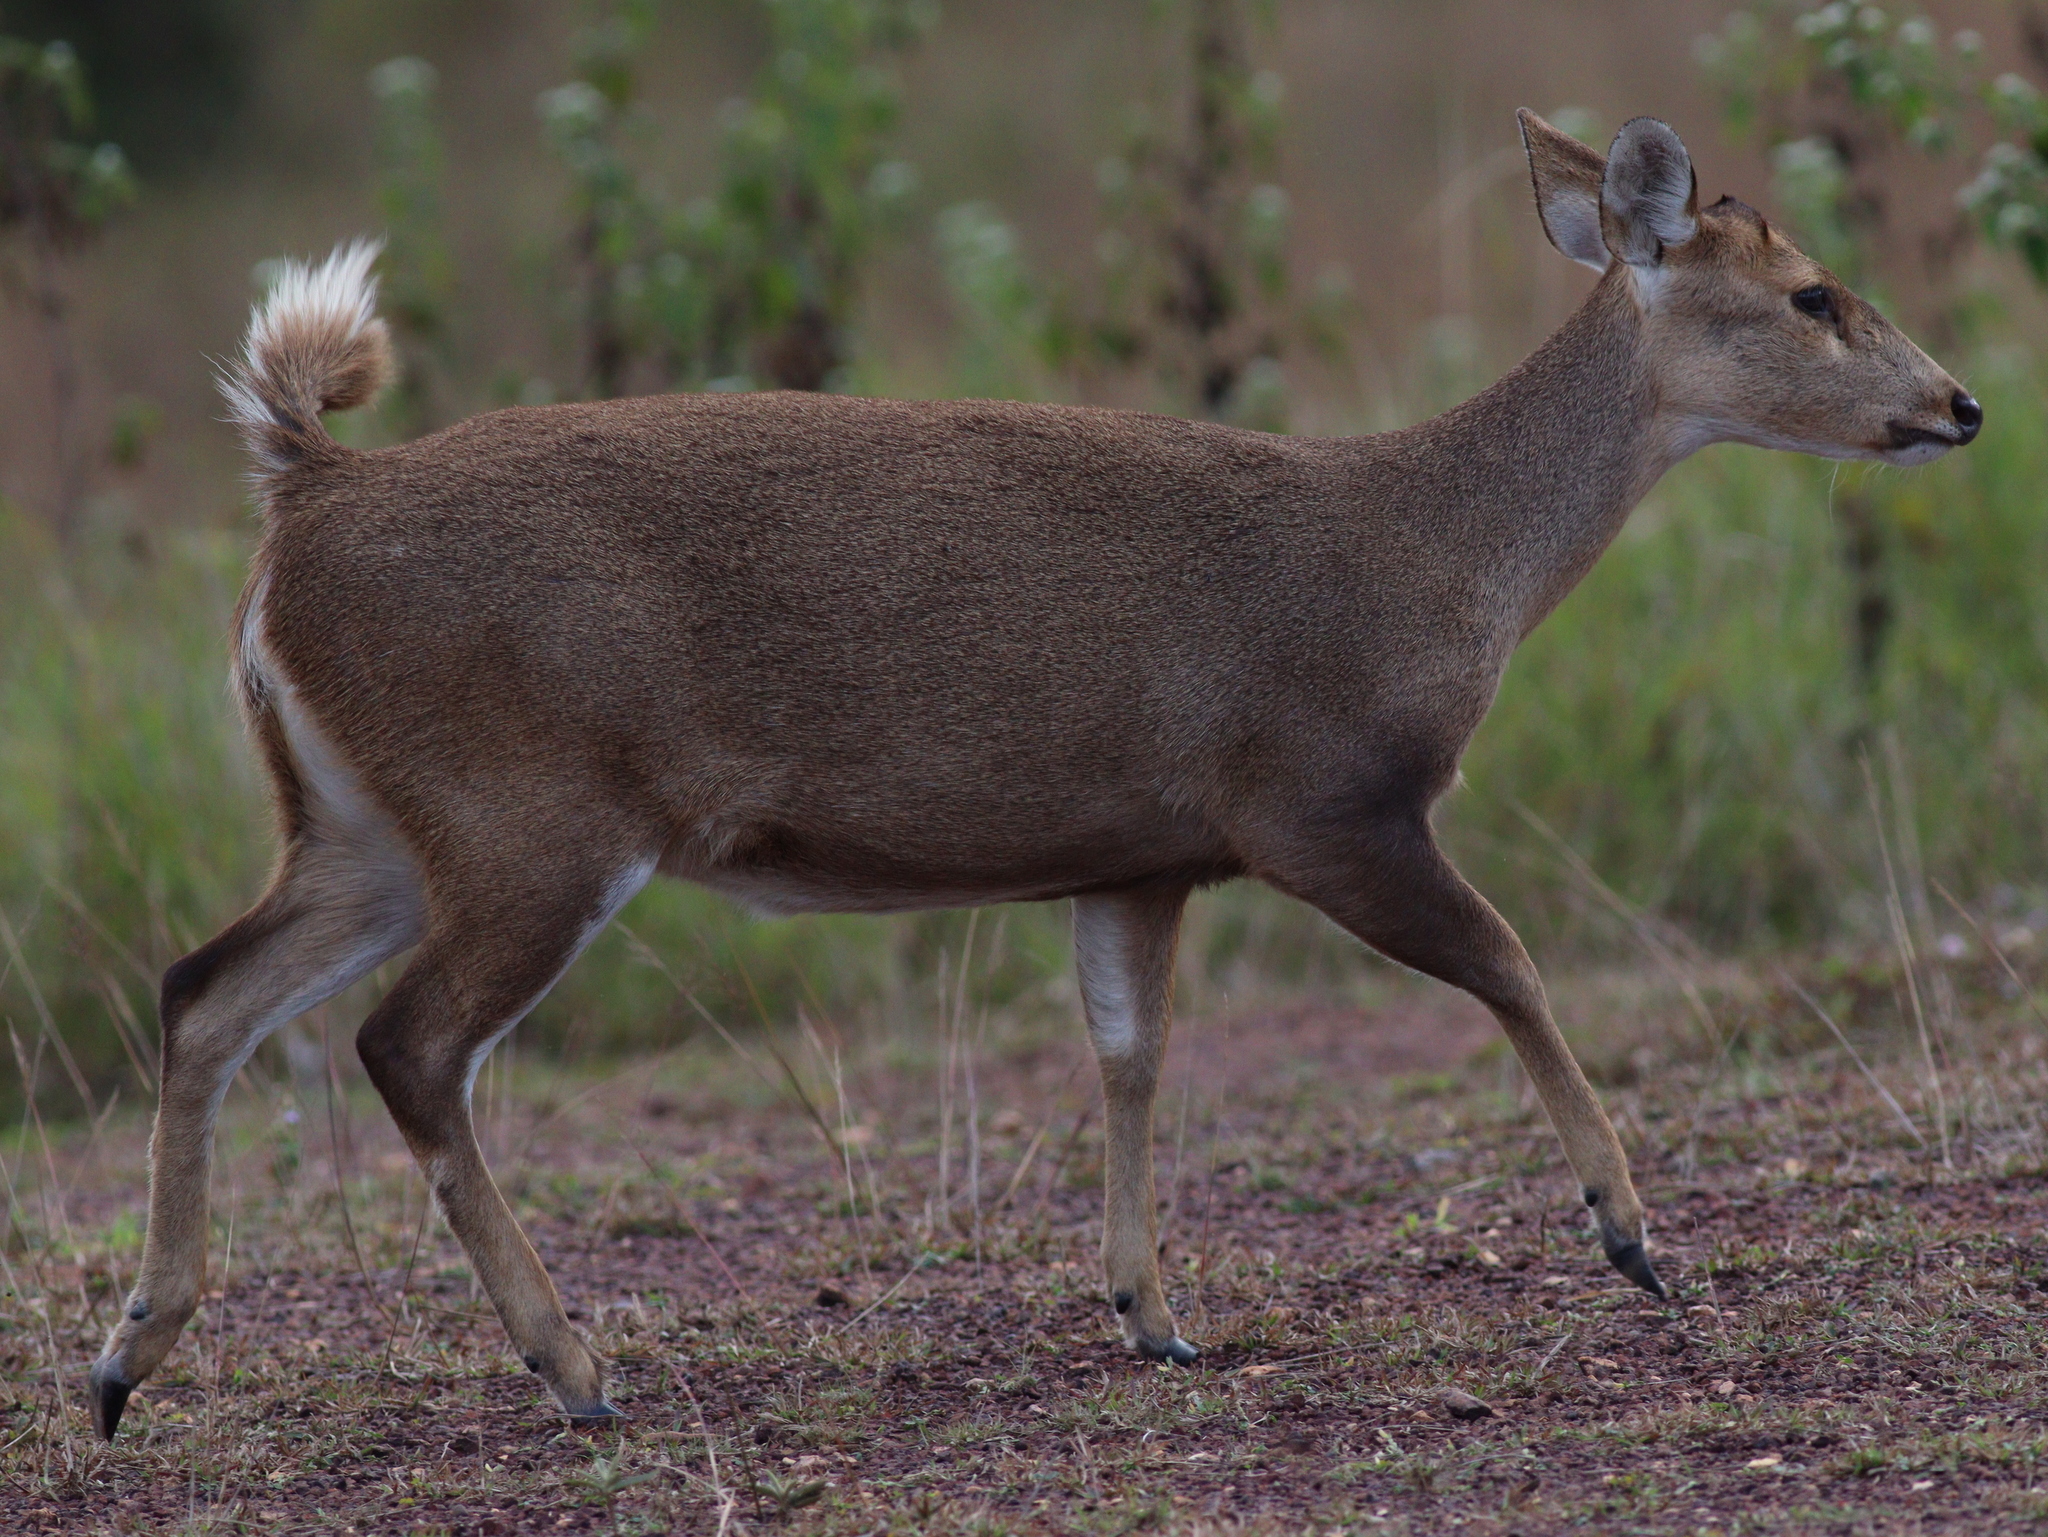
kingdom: Animalia
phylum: Chordata
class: Mammalia
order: Artiodactyla
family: Cervidae
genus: Axis
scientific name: Axis porcinus
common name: Hog deer
